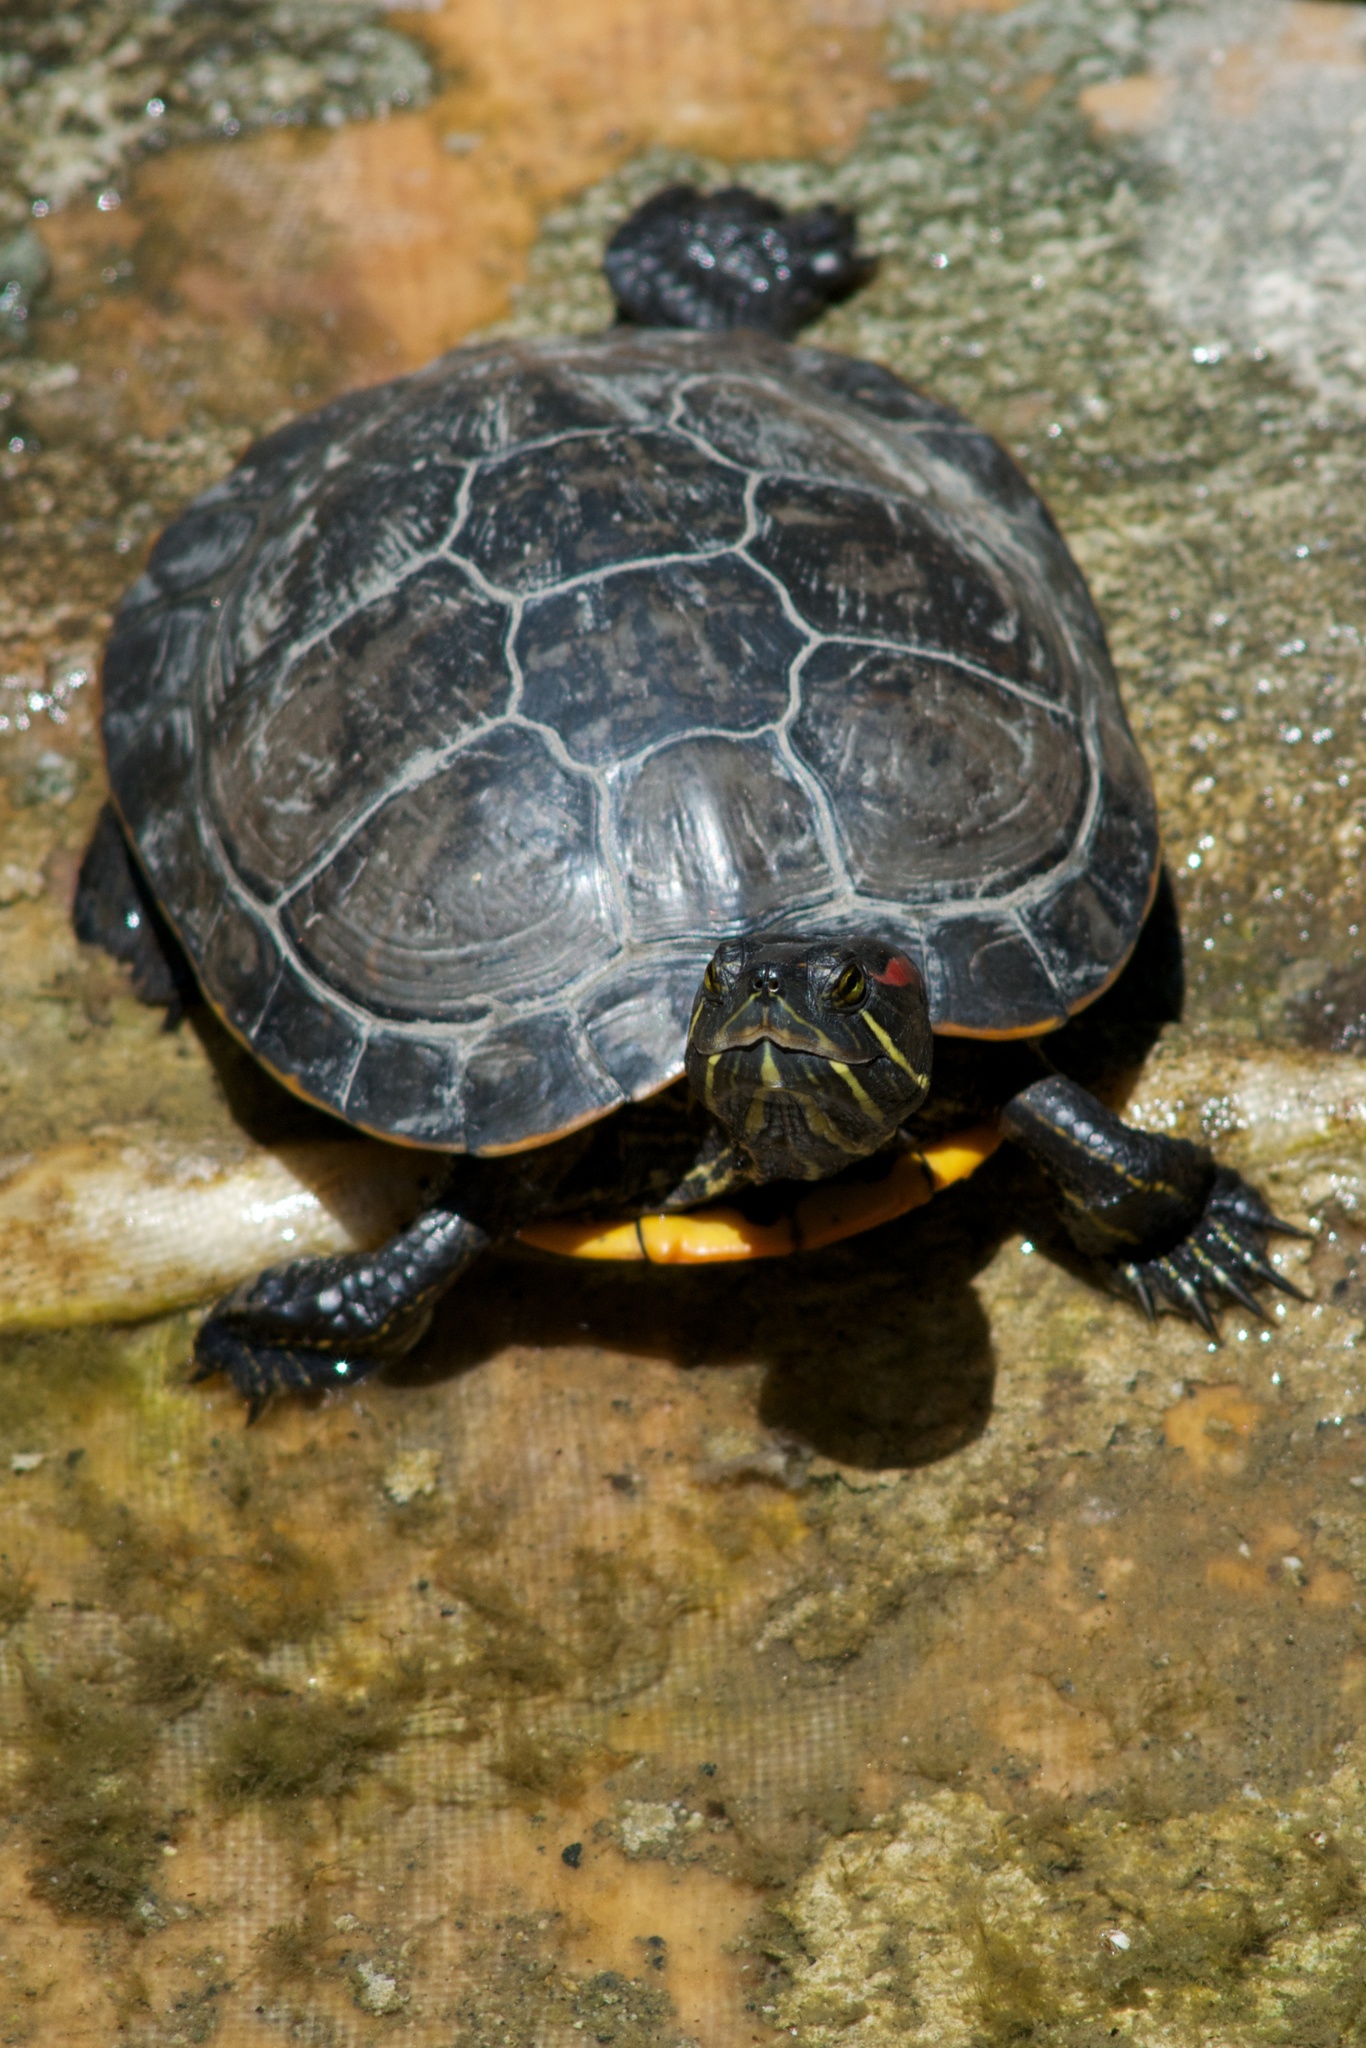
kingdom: Animalia
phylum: Chordata
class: Testudines
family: Emydidae
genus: Trachemys
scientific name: Trachemys scripta
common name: Slider
